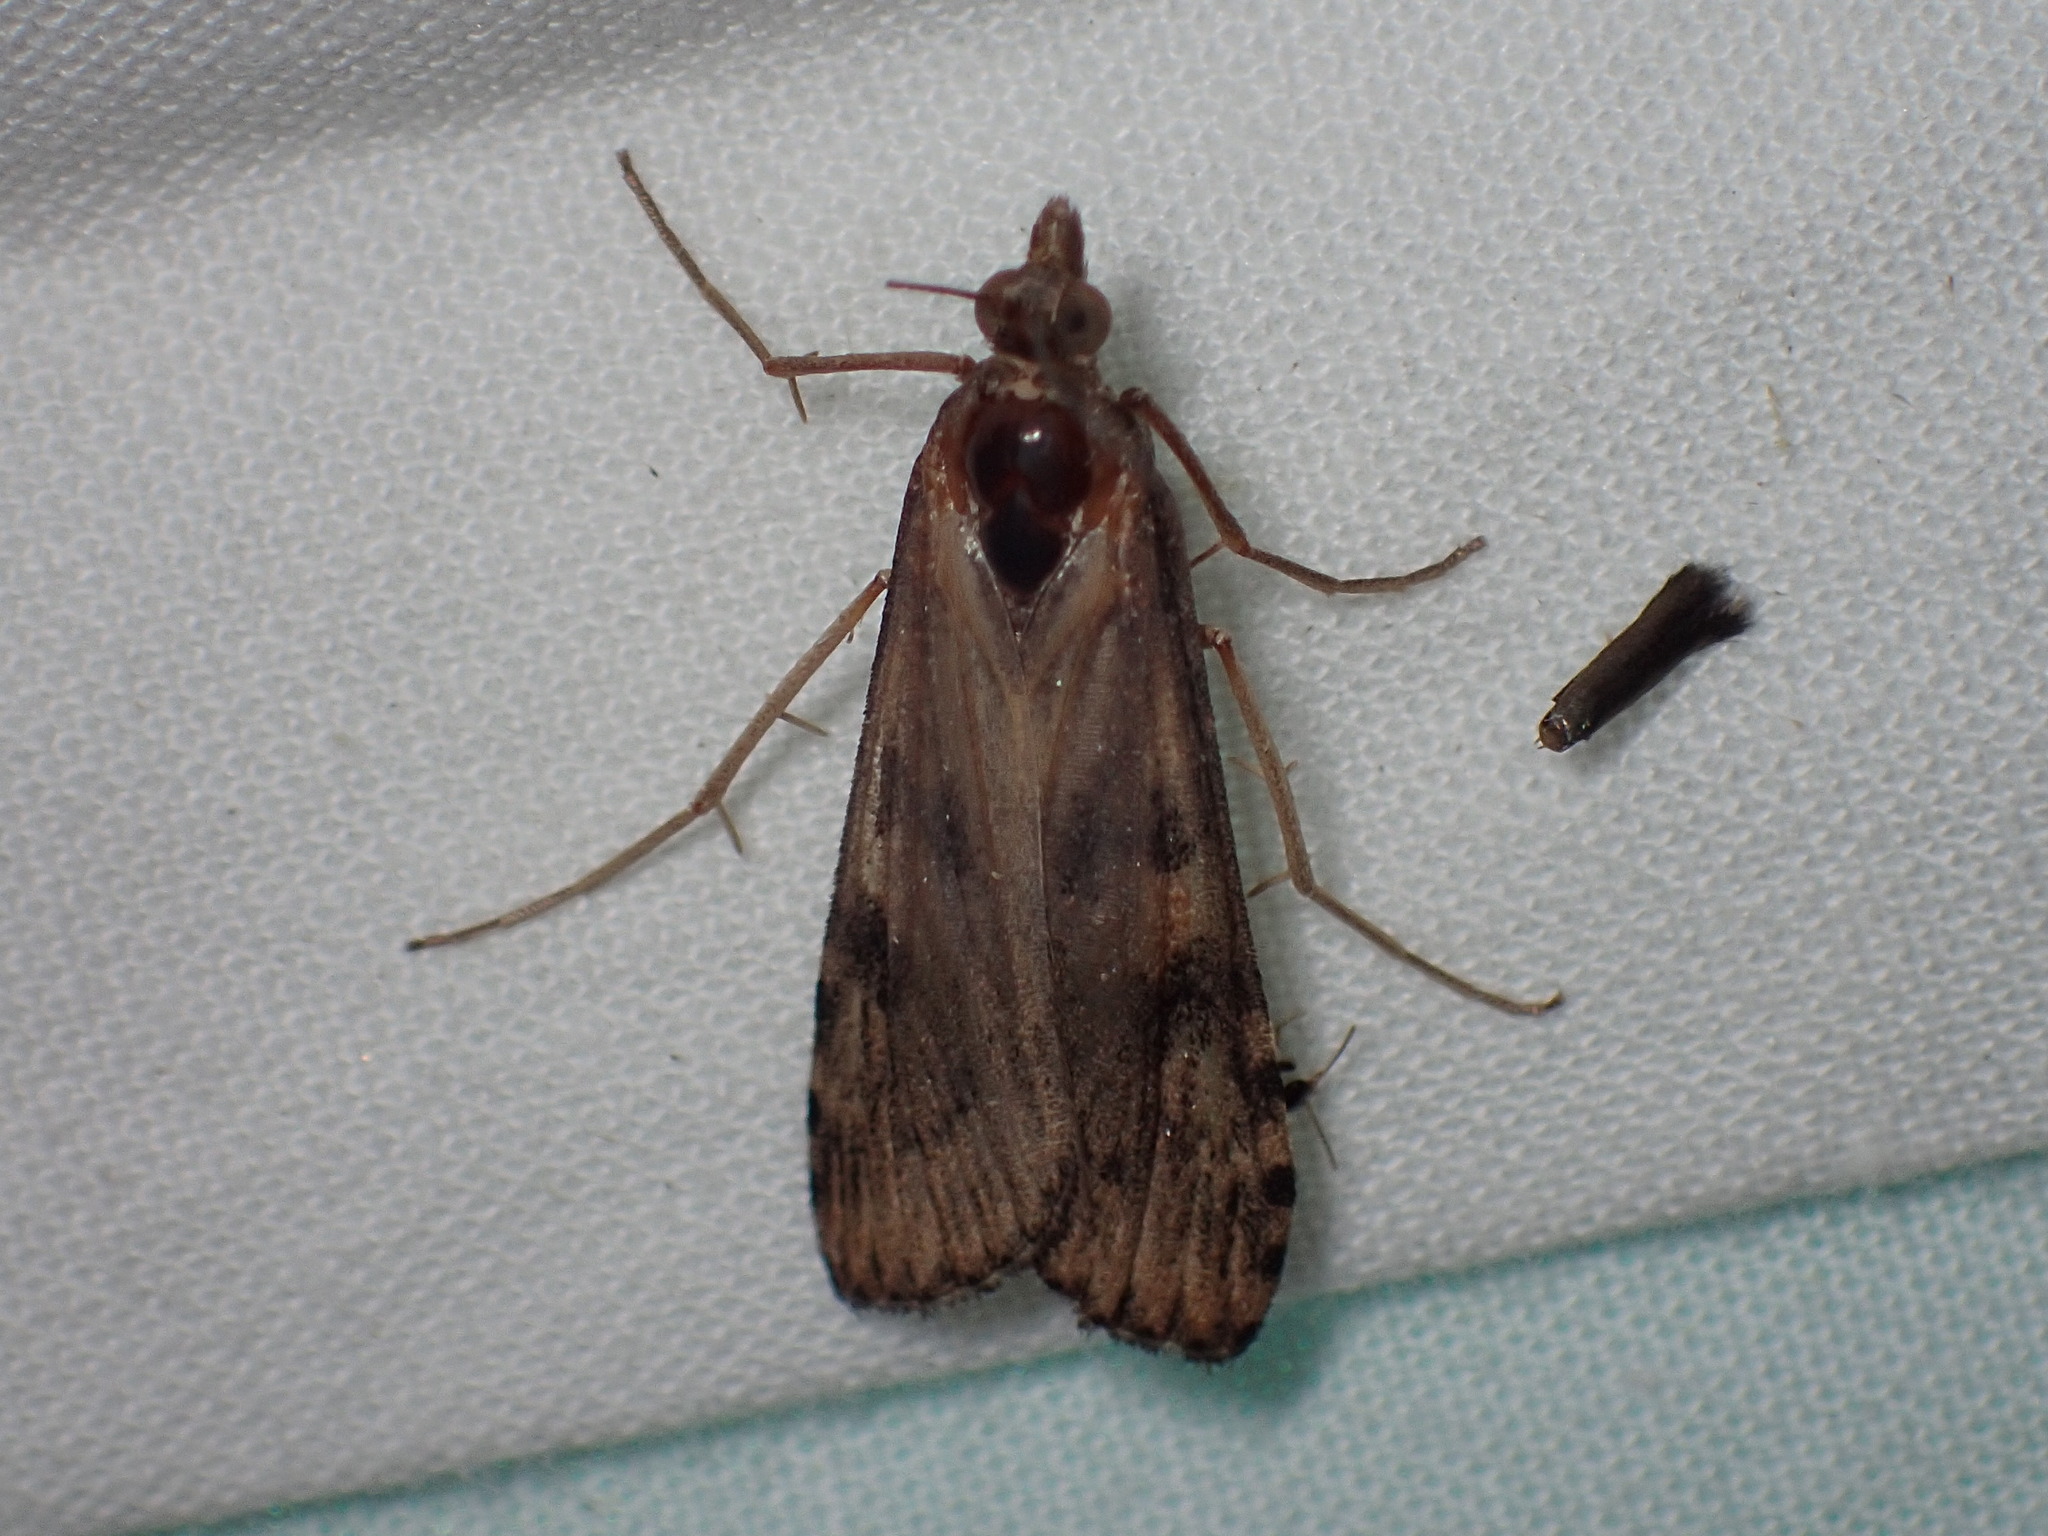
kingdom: Animalia
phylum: Arthropoda
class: Insecta
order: Lepidoptera
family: Crambidae
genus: Nomophila
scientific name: Nomophila nearctica
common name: American rush veneer
